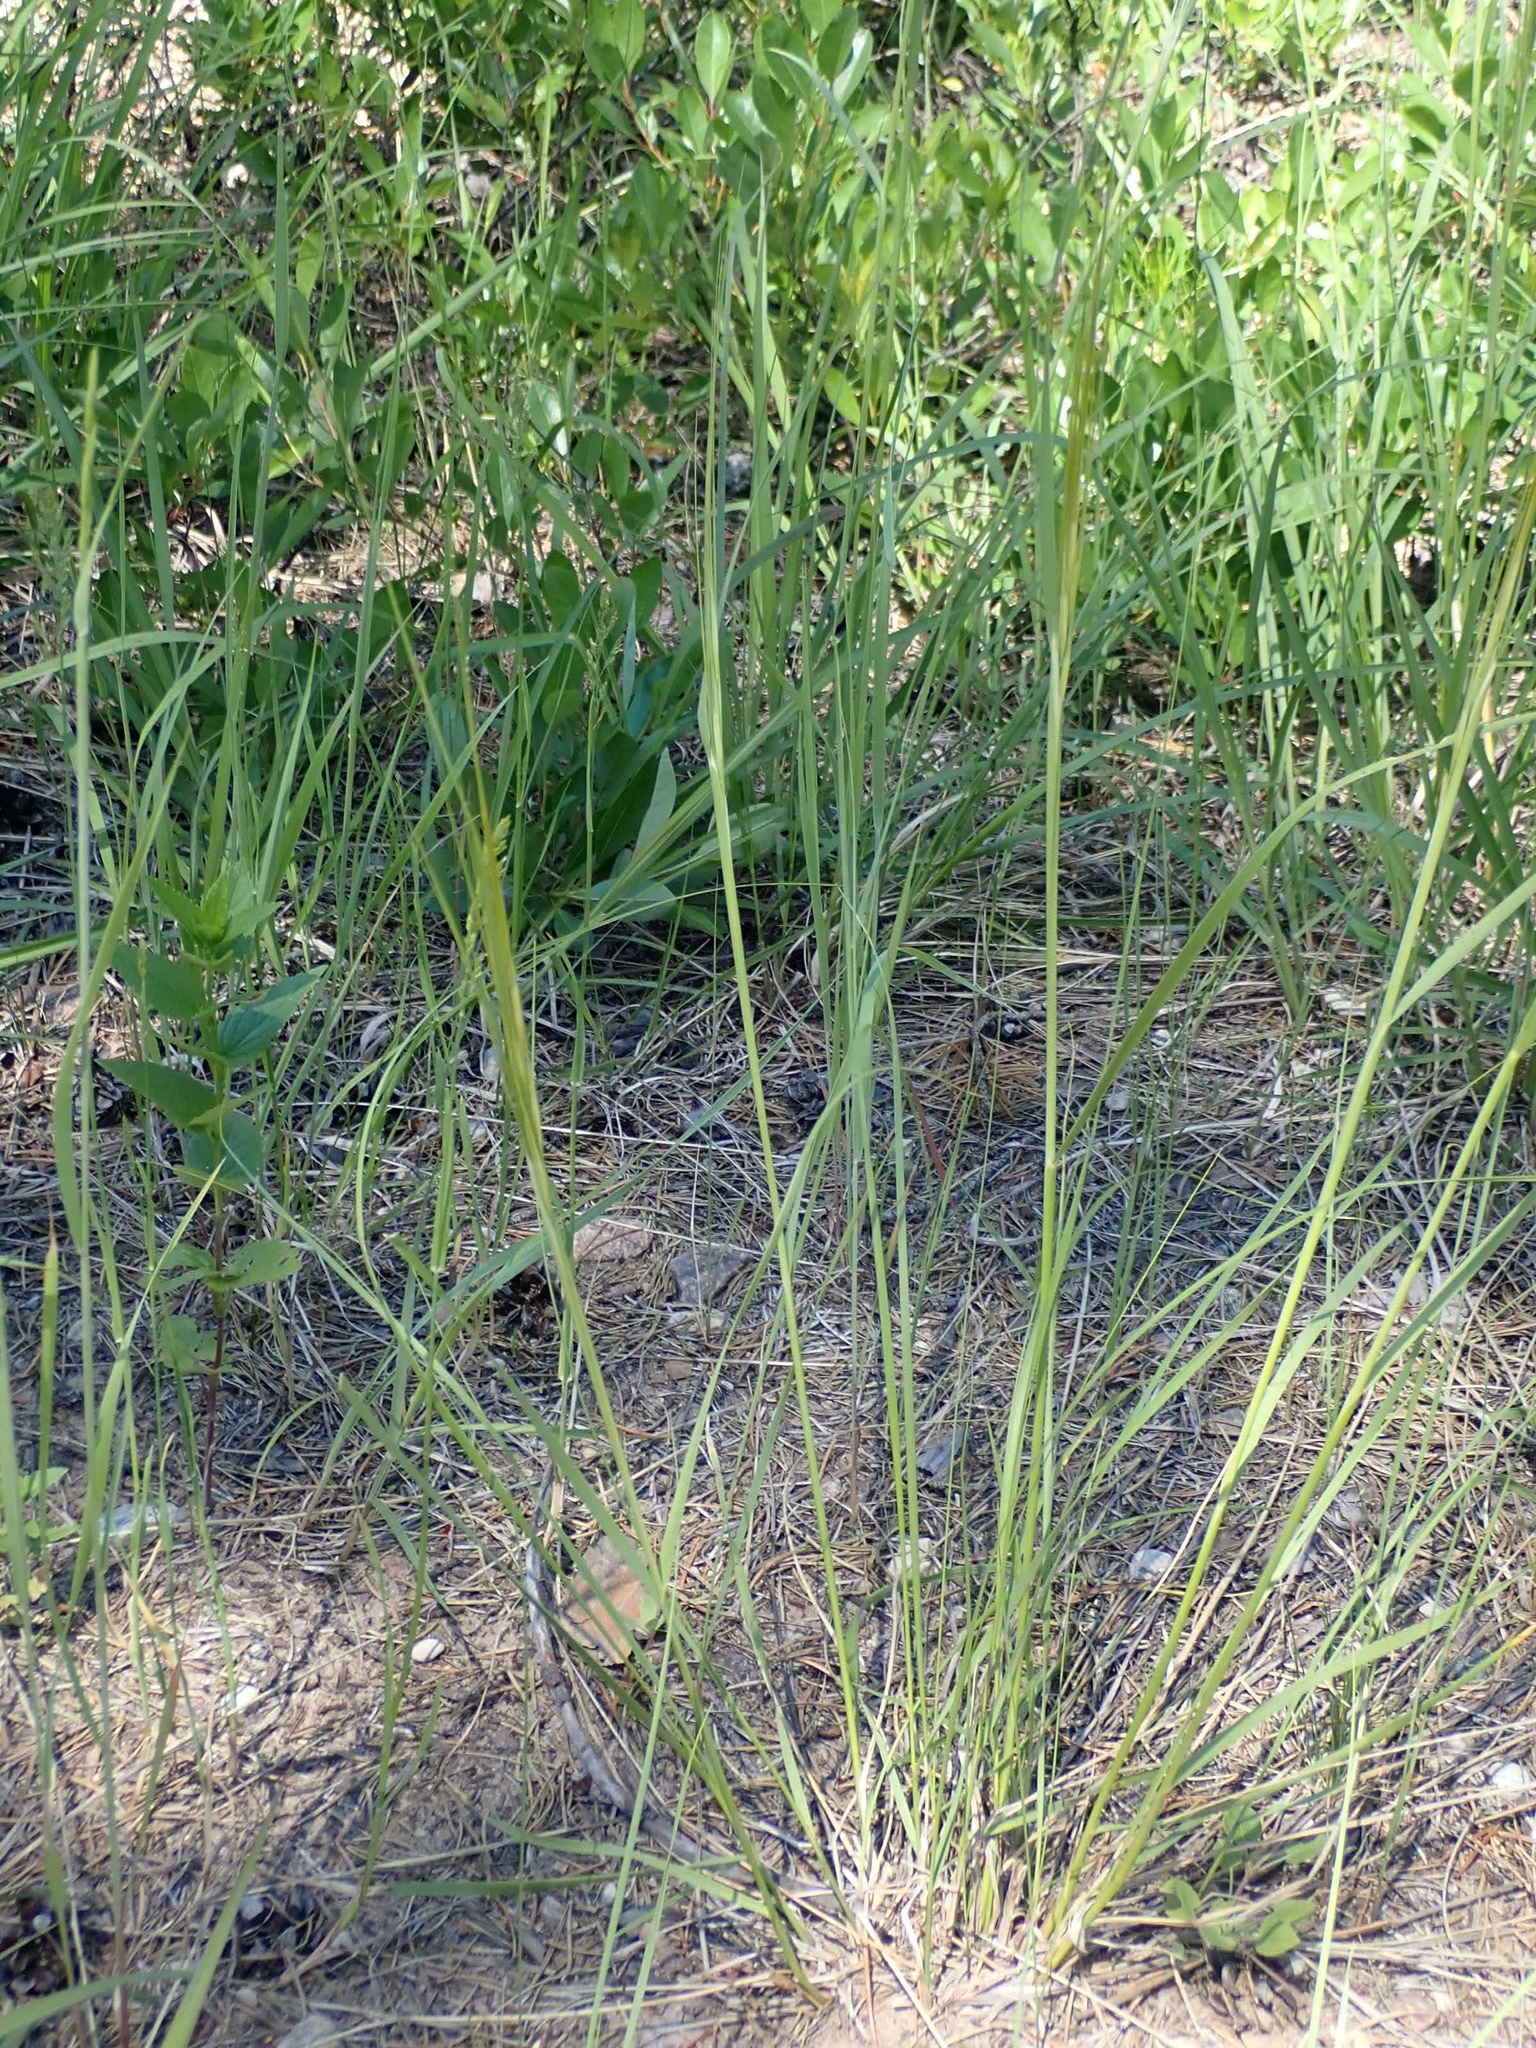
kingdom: Plantae
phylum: Tracheophyta
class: Liliopsida
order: Poales
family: Poaceae
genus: Hesperostipa
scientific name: Hesperostipa spartea
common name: Porcupine grass
